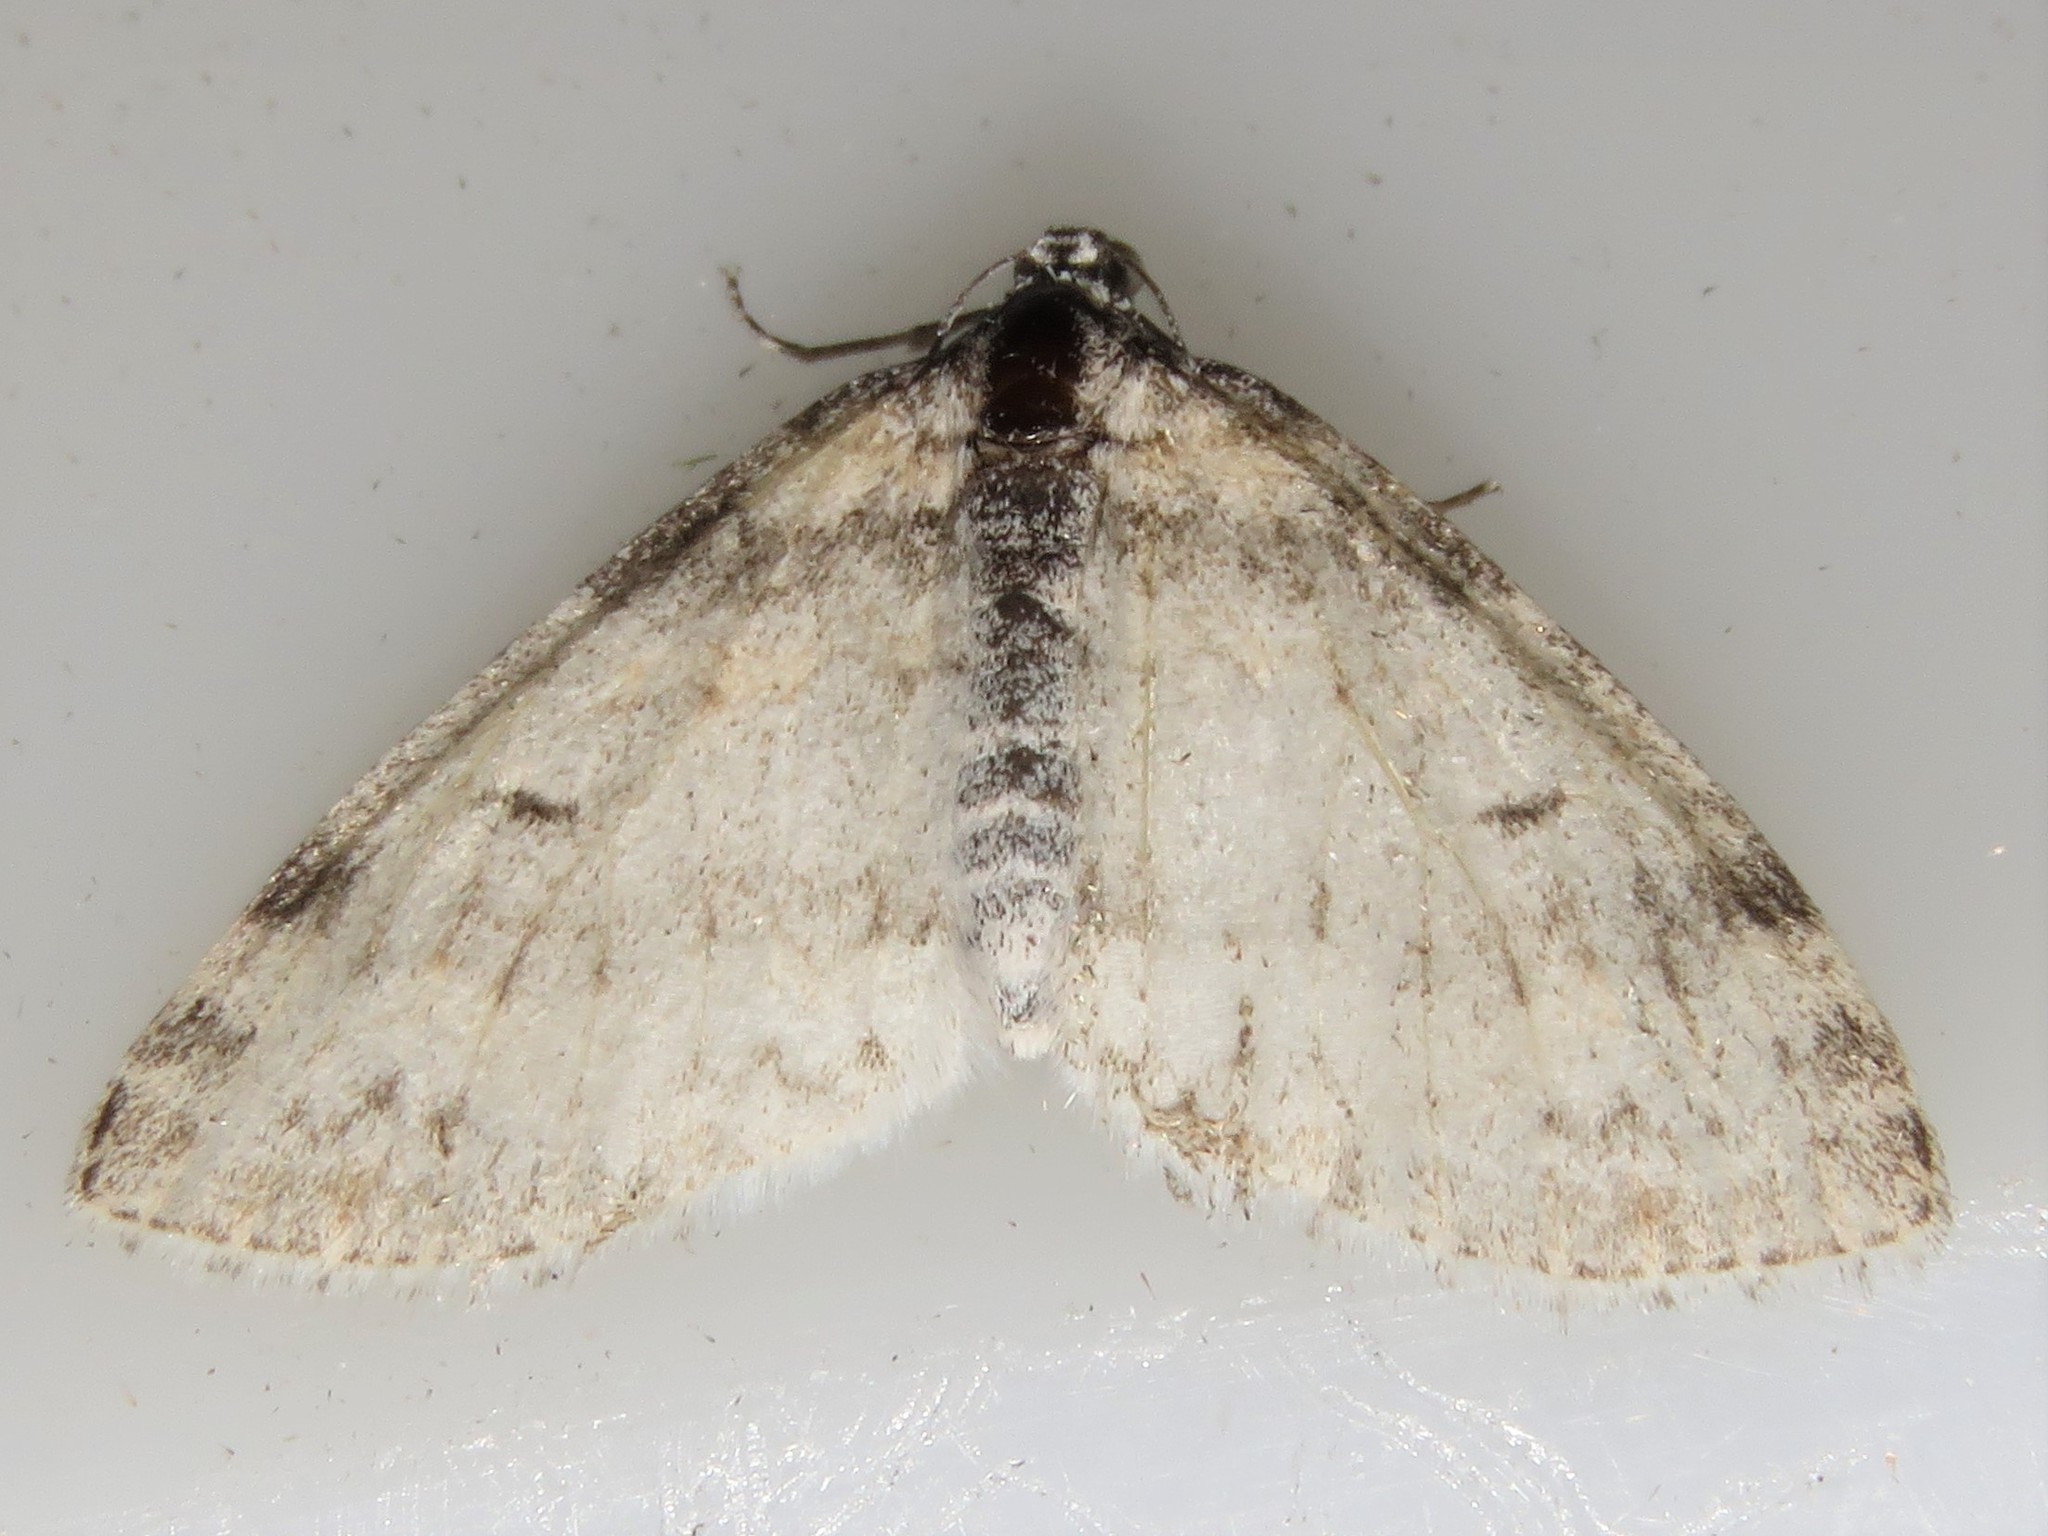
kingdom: Animalia
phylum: Arthropoda
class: Insecta
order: Lepidoptera
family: Geometridae
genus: Lobophora
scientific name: Lobophora nivigerata
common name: Powdered bigwing
